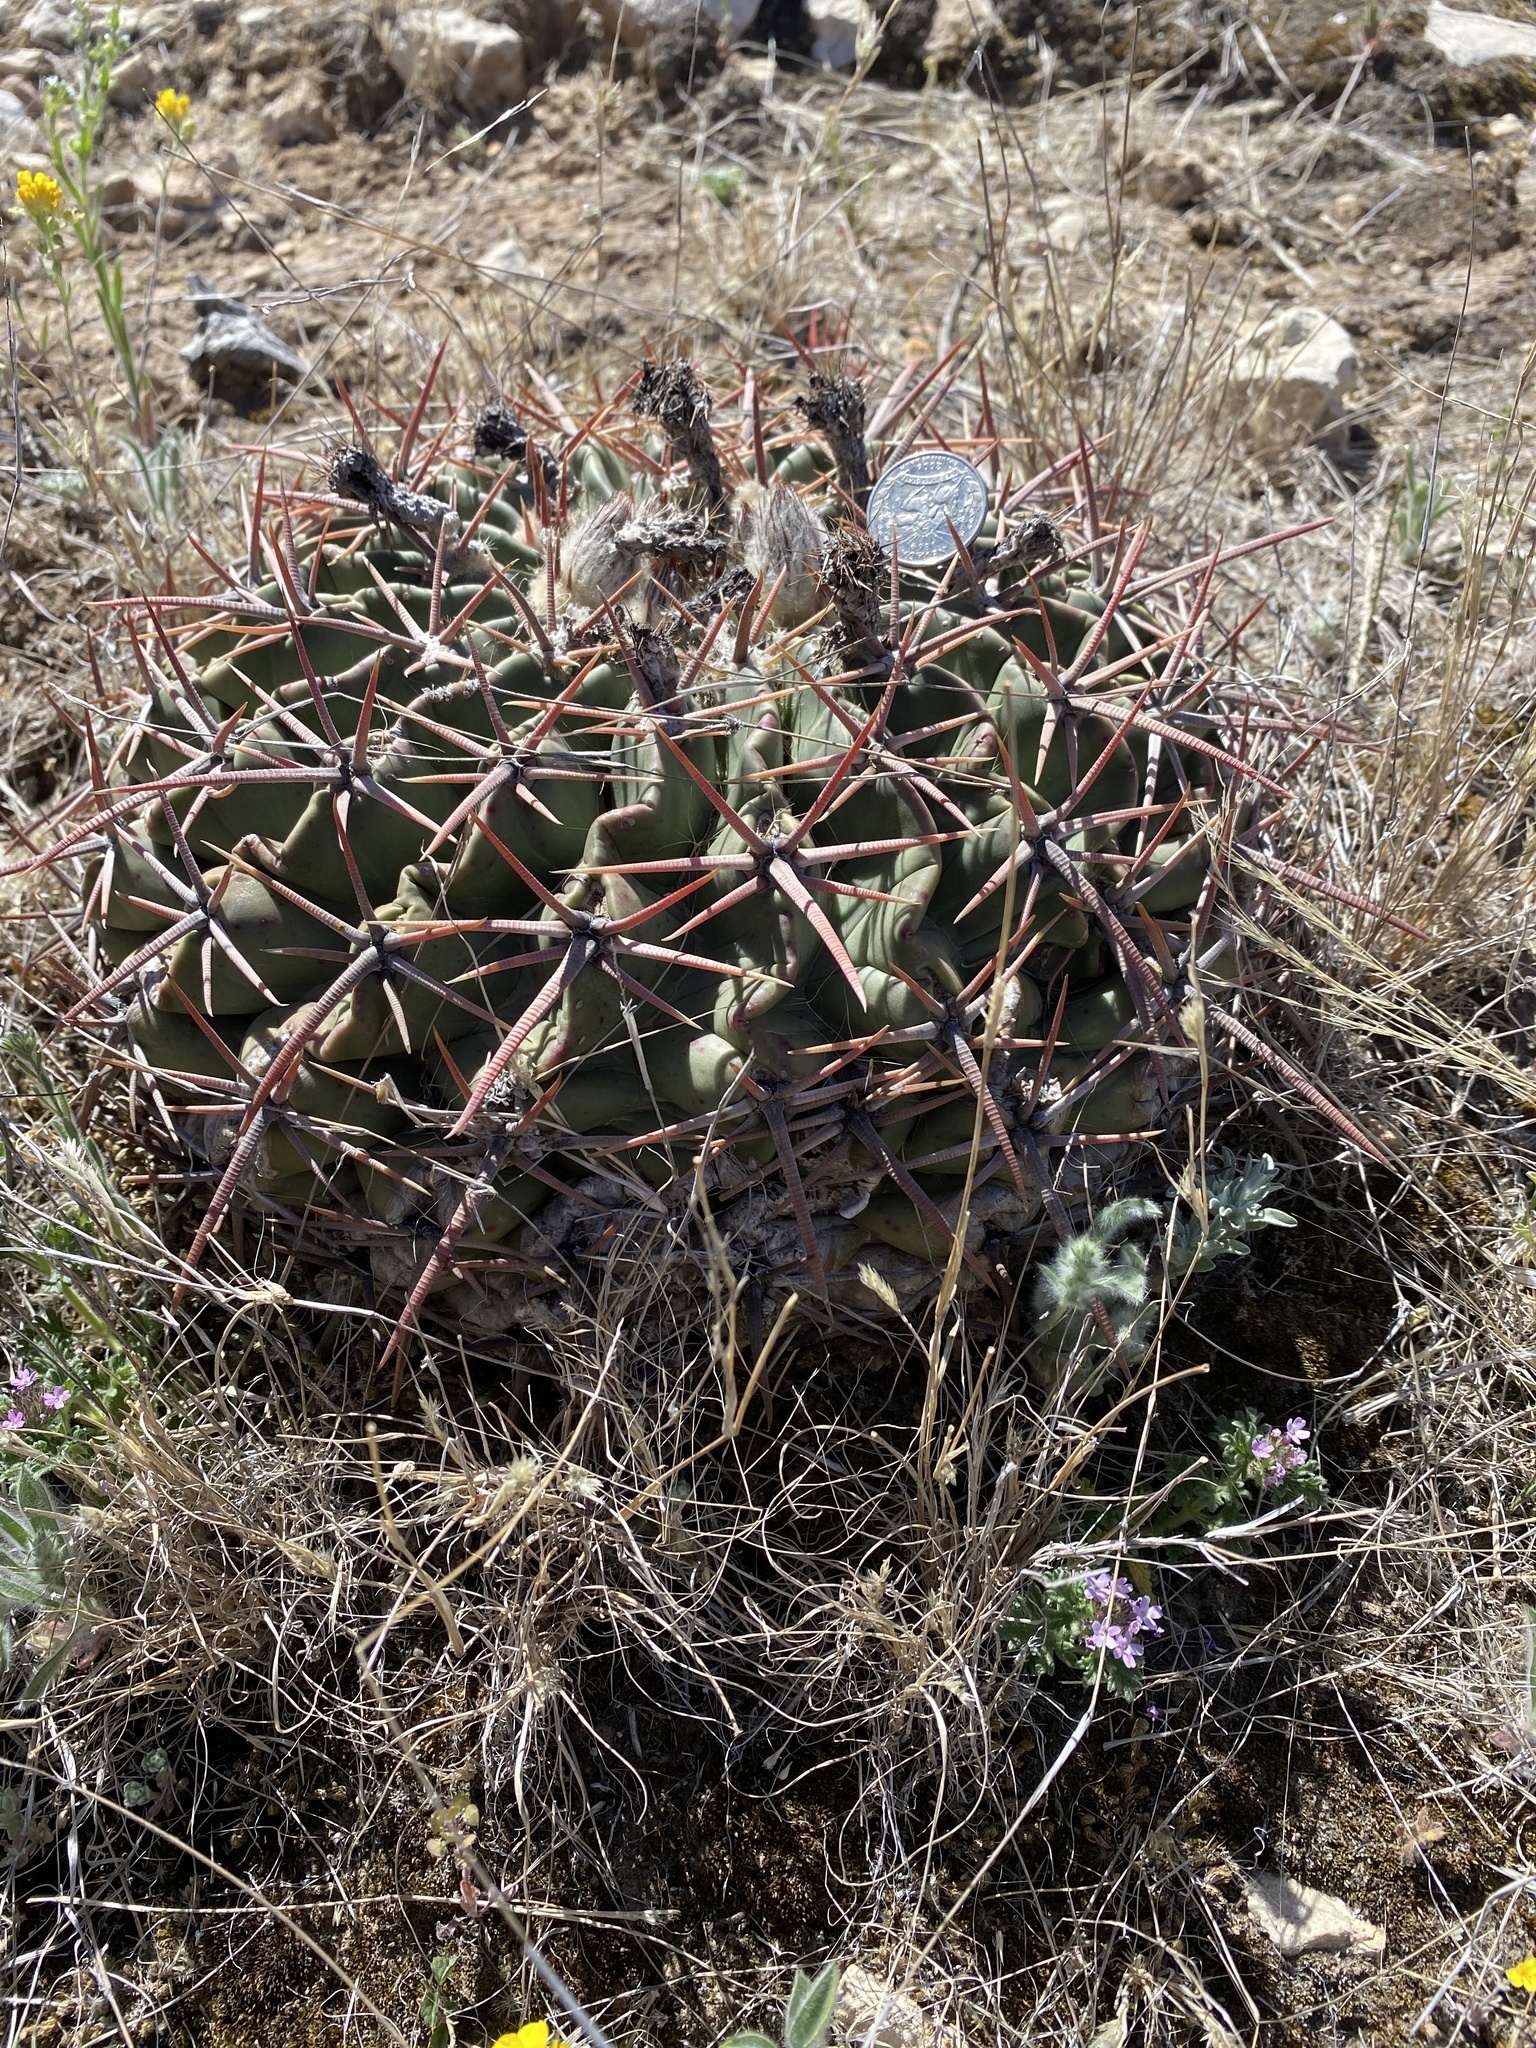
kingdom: Plantae
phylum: Tracheophyta
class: Magnoliopsida
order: Caryophyllales
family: Cactaceae
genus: Echinocactus
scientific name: Echinocactus texensis
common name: Devil's pincushion
